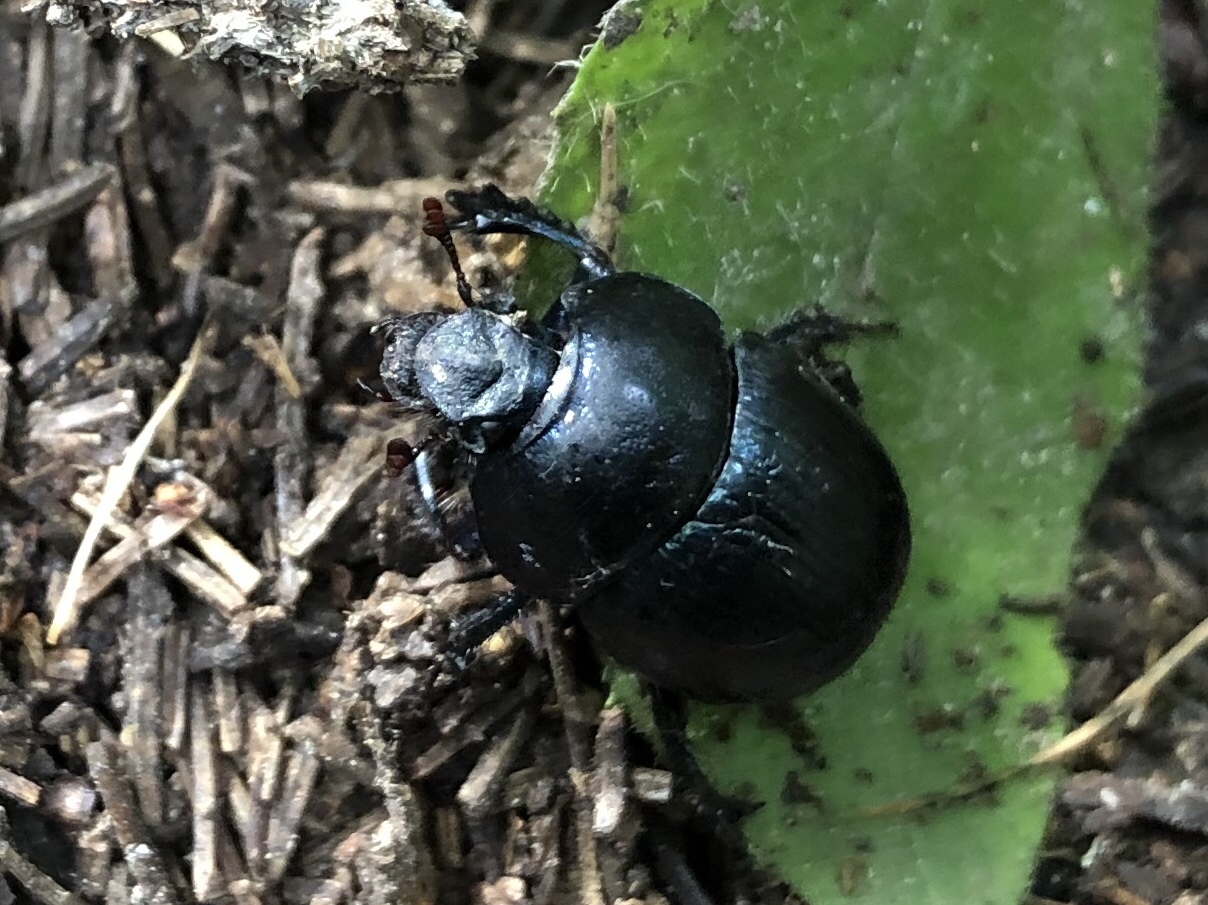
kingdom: Animalia
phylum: Arthropoda
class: Insecta
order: Coleoptera
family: Geotrupidae
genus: Anoplotrupes
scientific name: Anoplotrupes stercorosus
